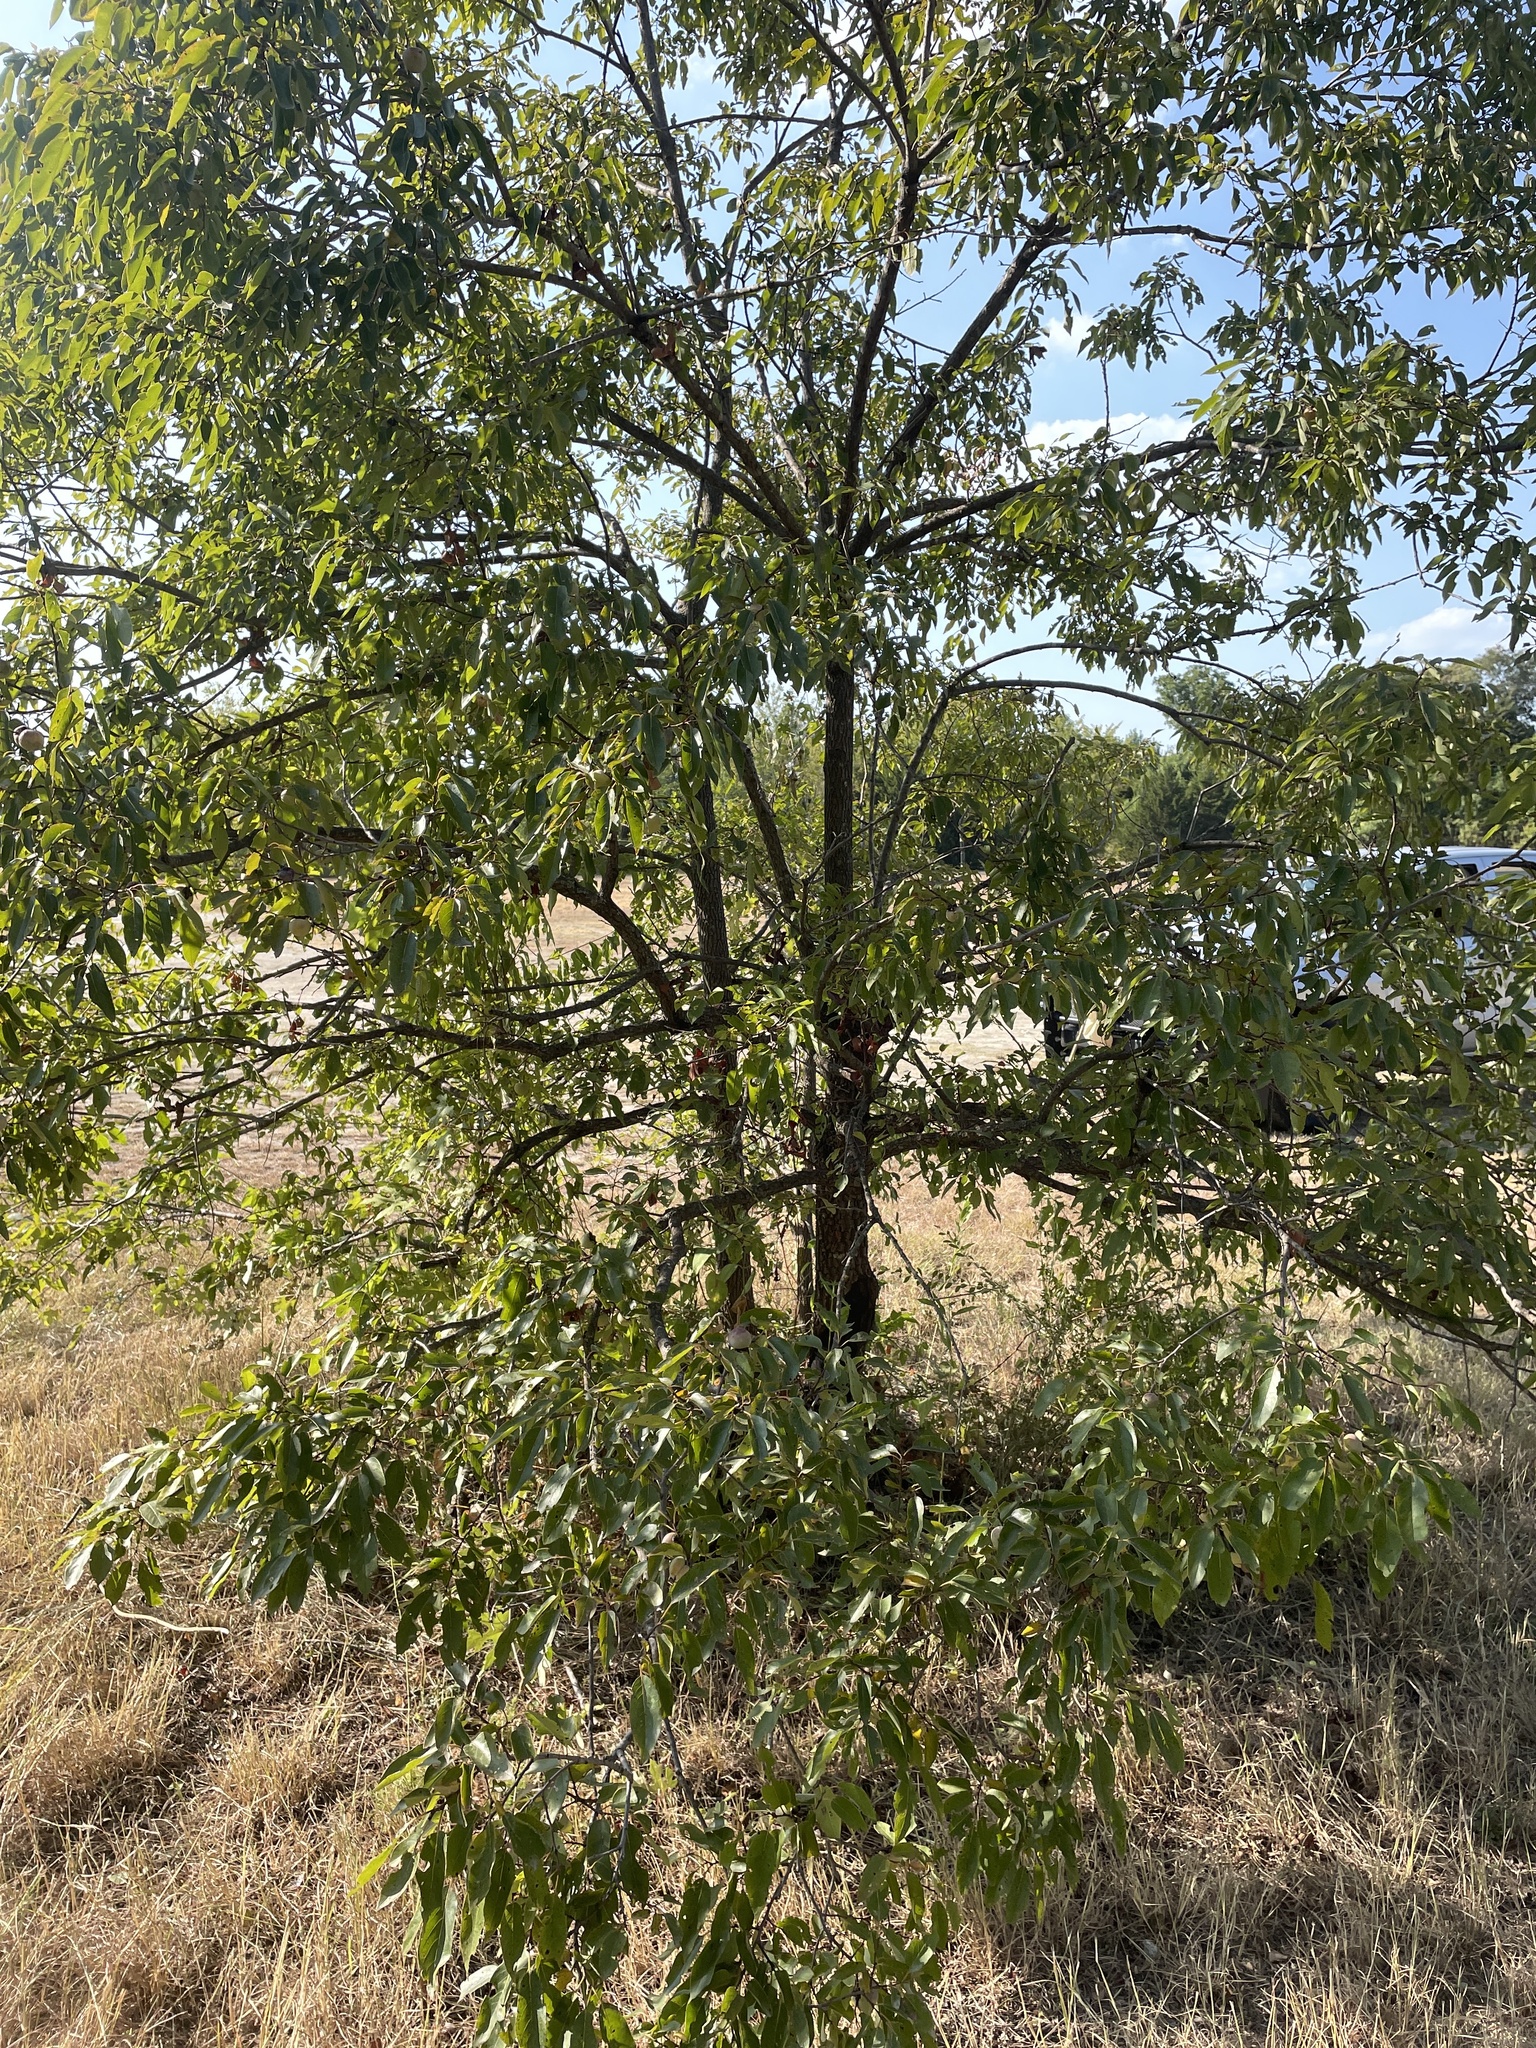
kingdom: Plantae
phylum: Tracheophyta
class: Magnoliopsida
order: Ericales
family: Ebenaceae
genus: Diospyros
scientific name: Diospyros virginiana
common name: Persimmon
